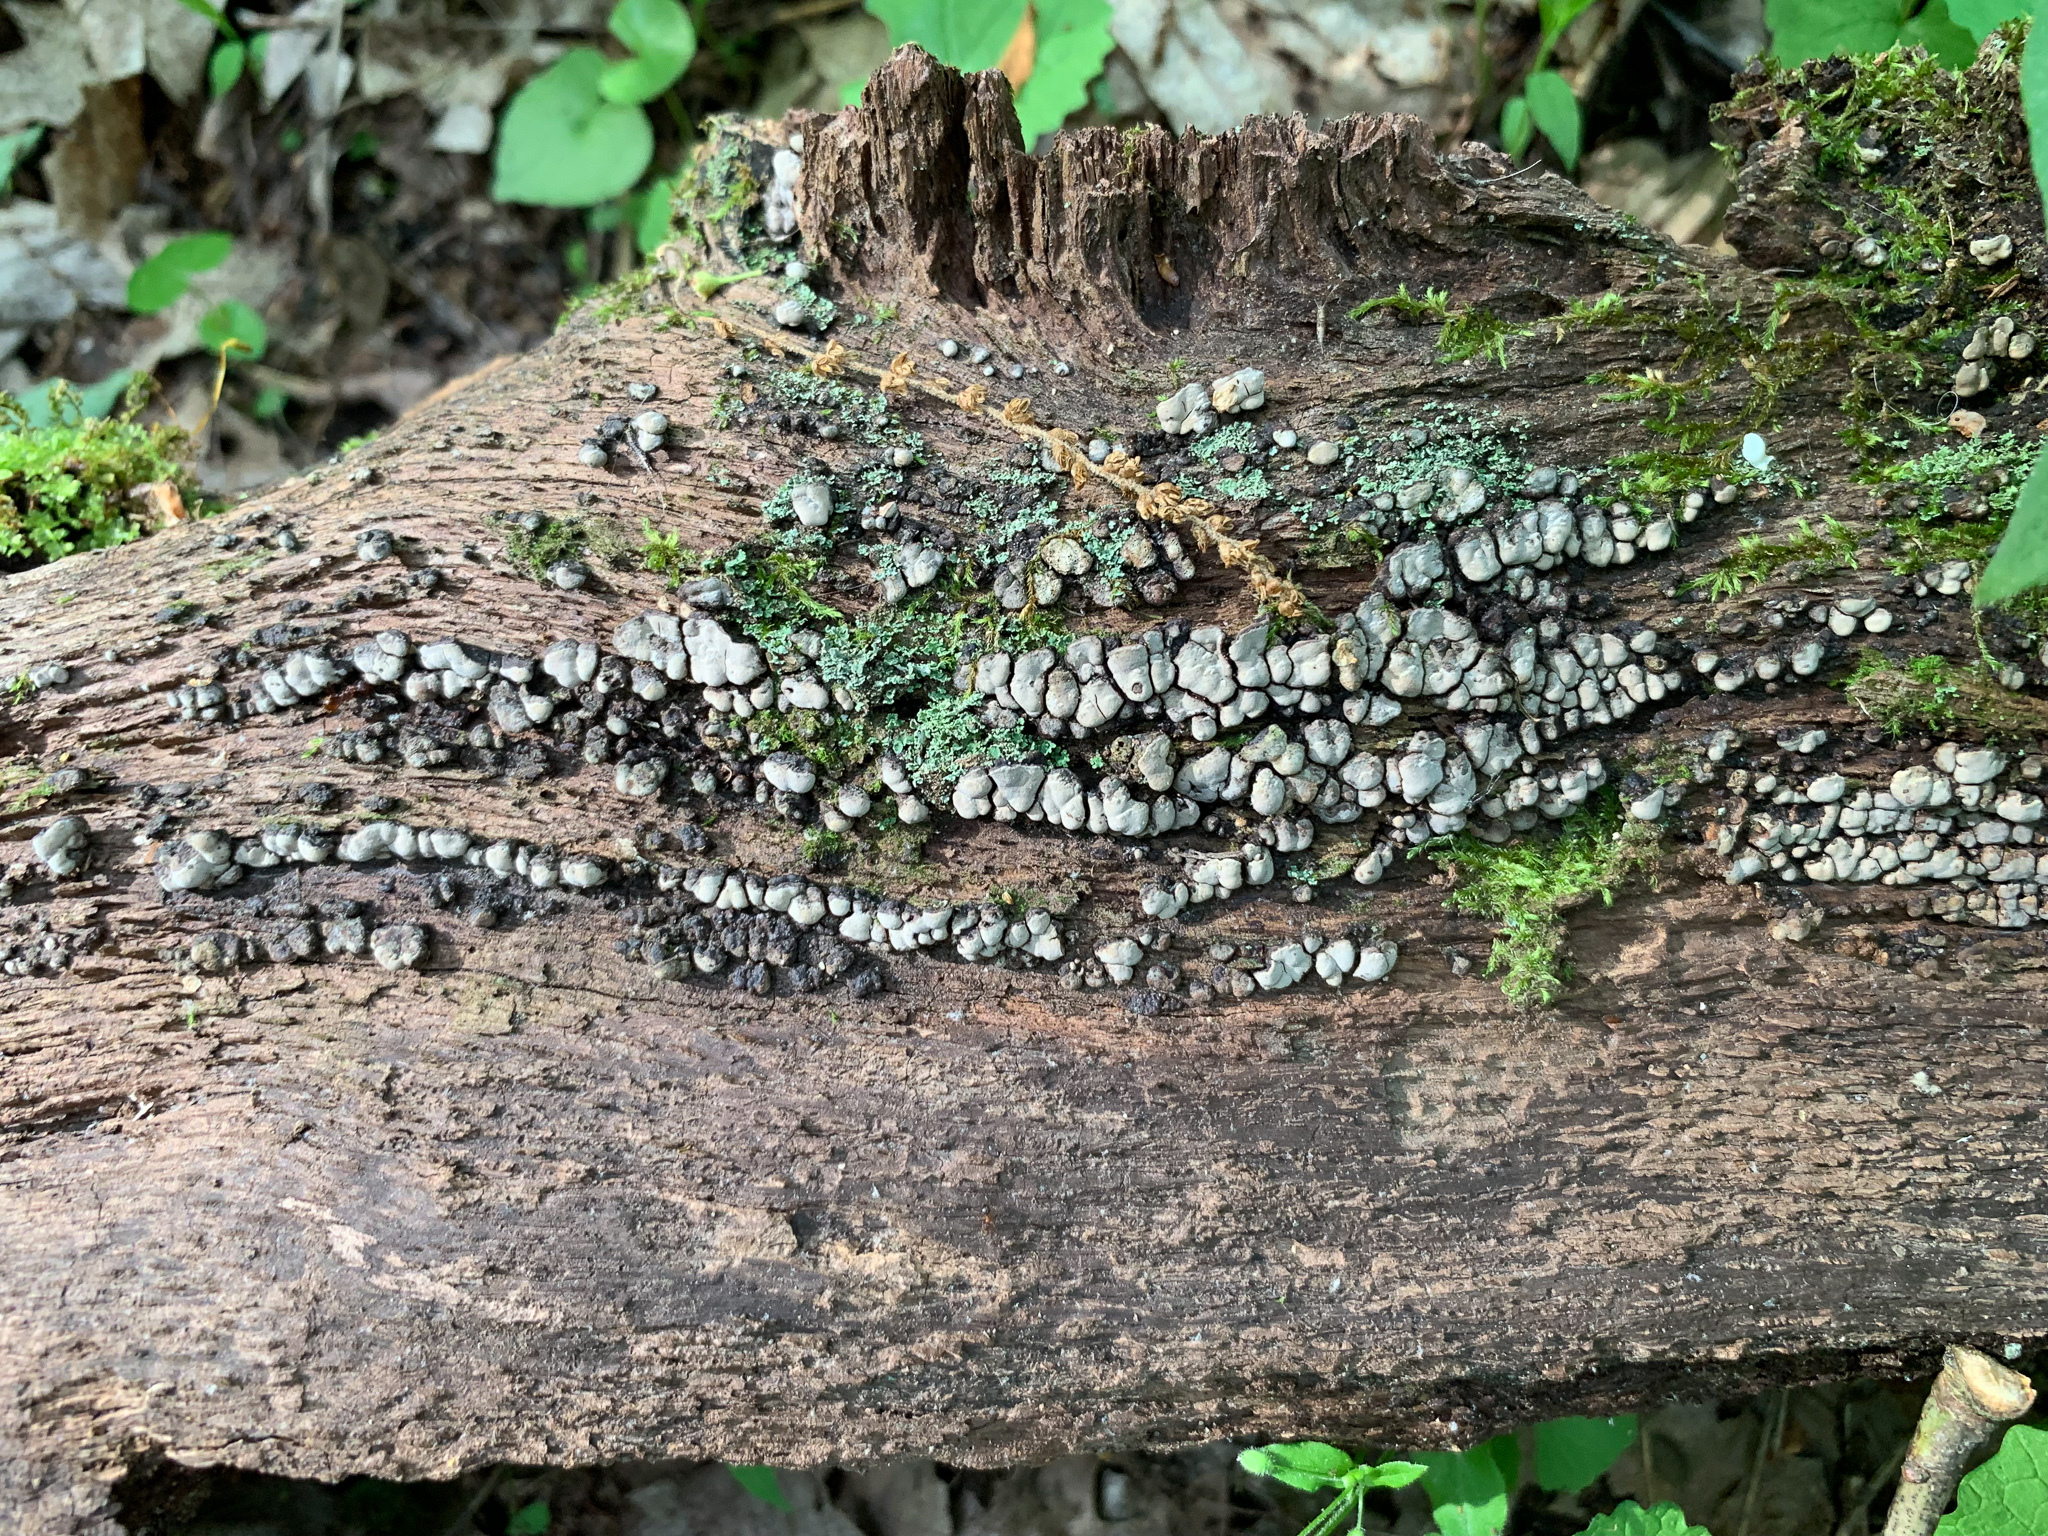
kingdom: Fungi
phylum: Basidiomycota
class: Agaricomycetes
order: Russulales
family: Stereaceae
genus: Xylobolus
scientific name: Xylobolus frustulatus
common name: Ceramic parchment
